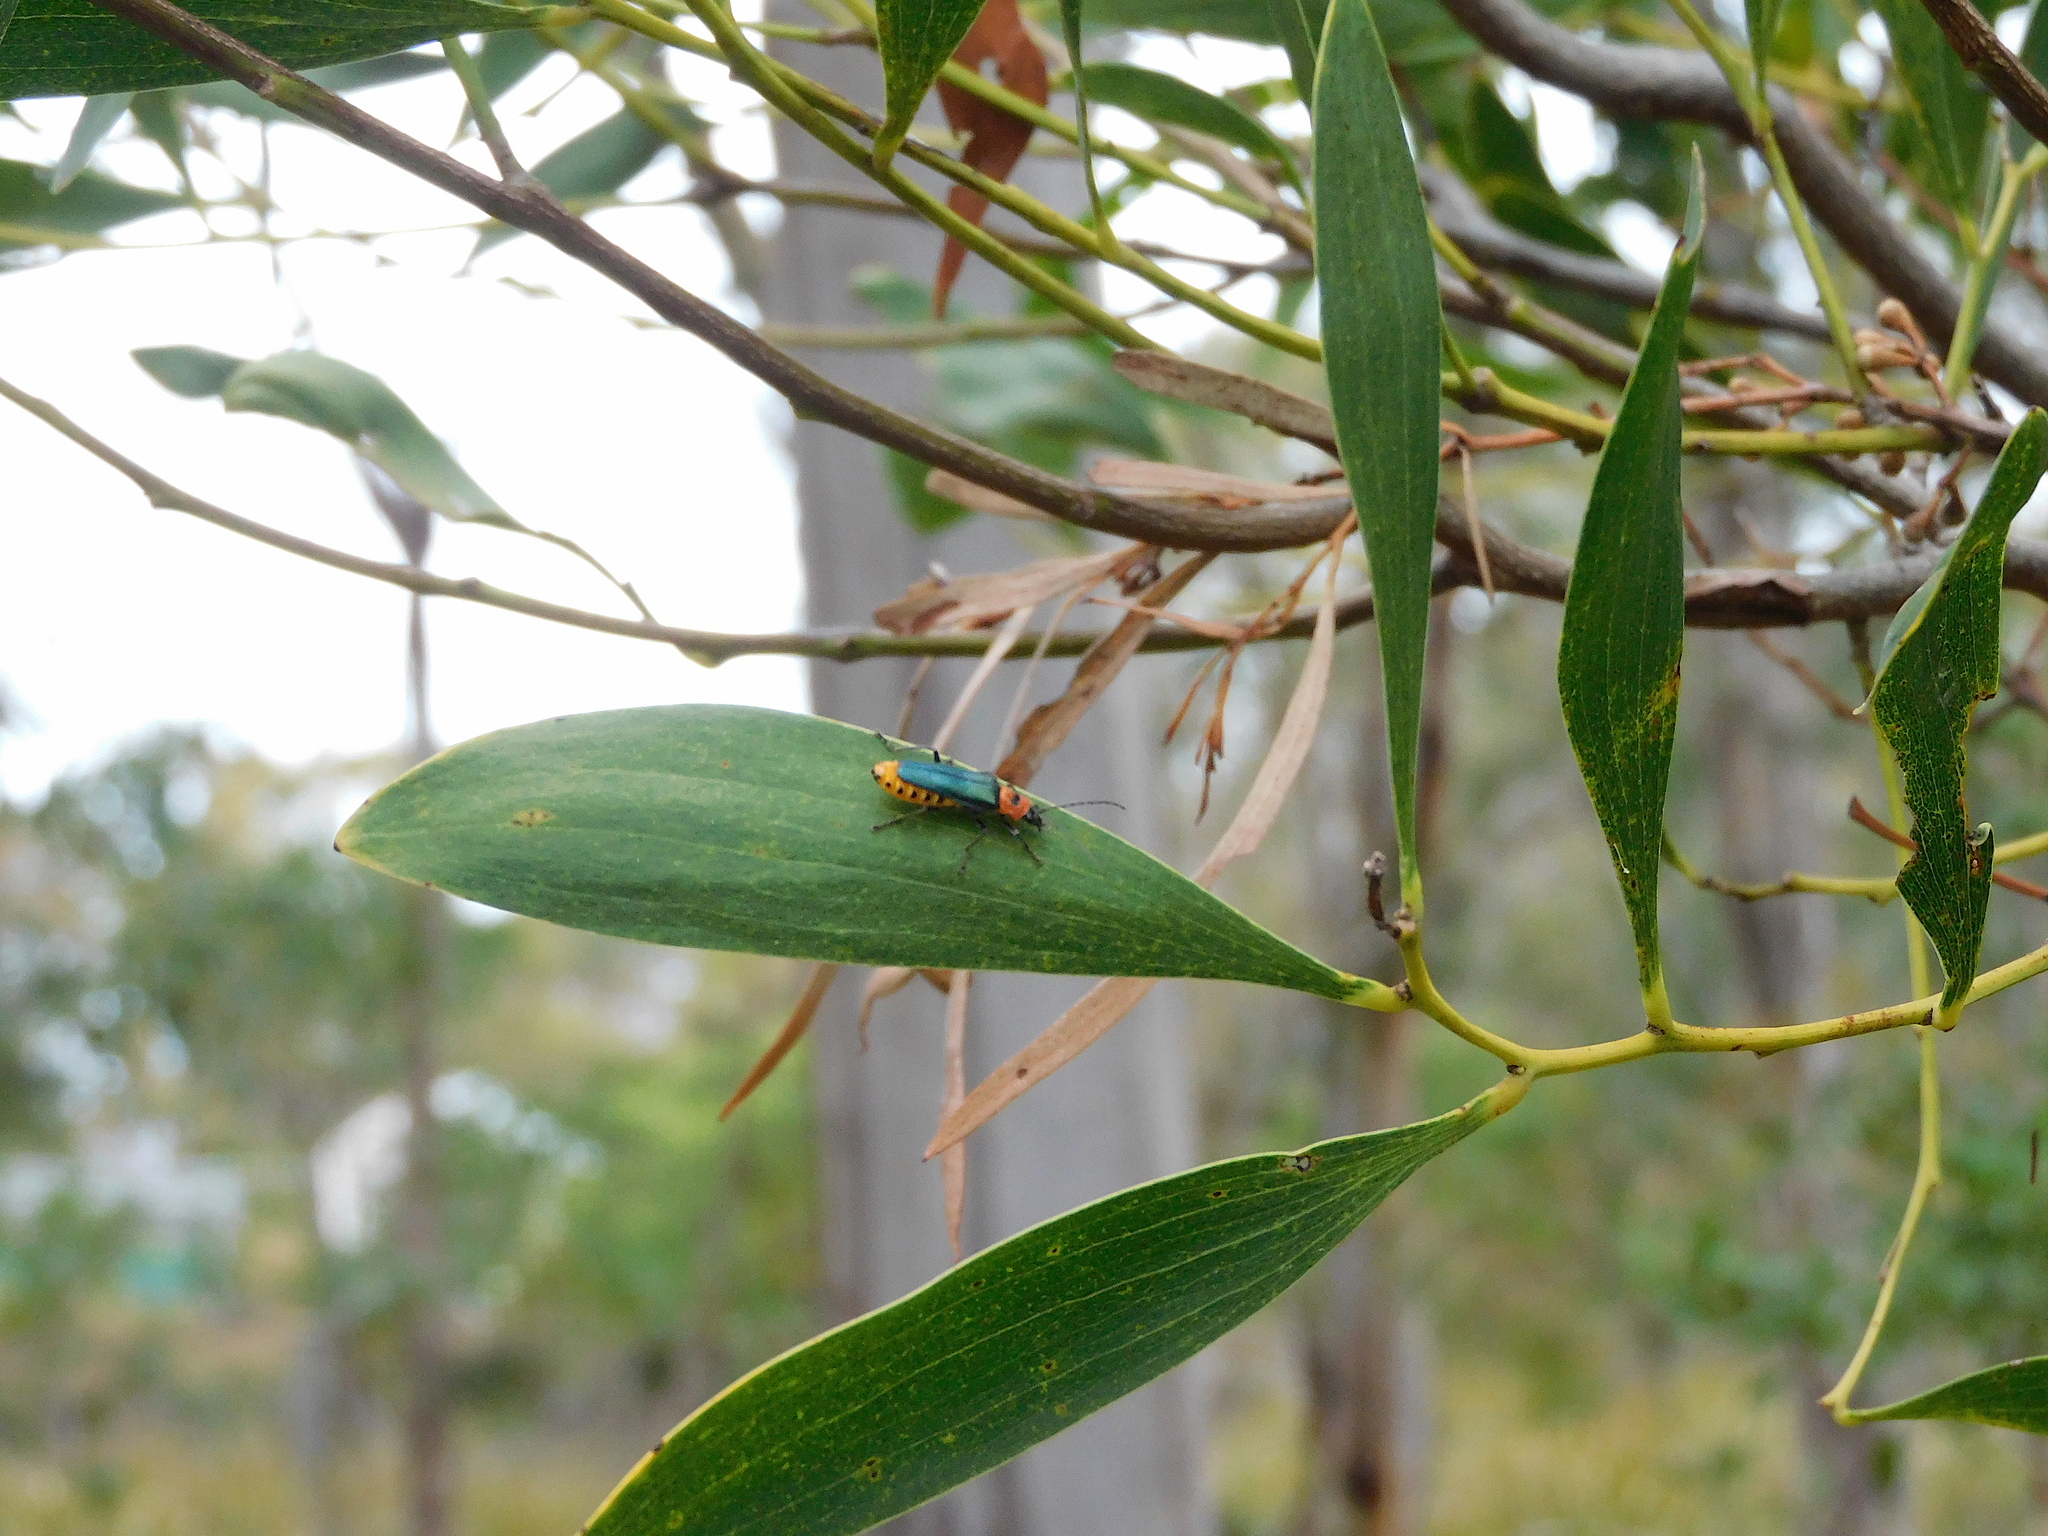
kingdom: Animalia
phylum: Arthropoda
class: Insecta
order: Coleoptera
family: Cantharidae
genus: Chauliognathus
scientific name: Chauliognathus
